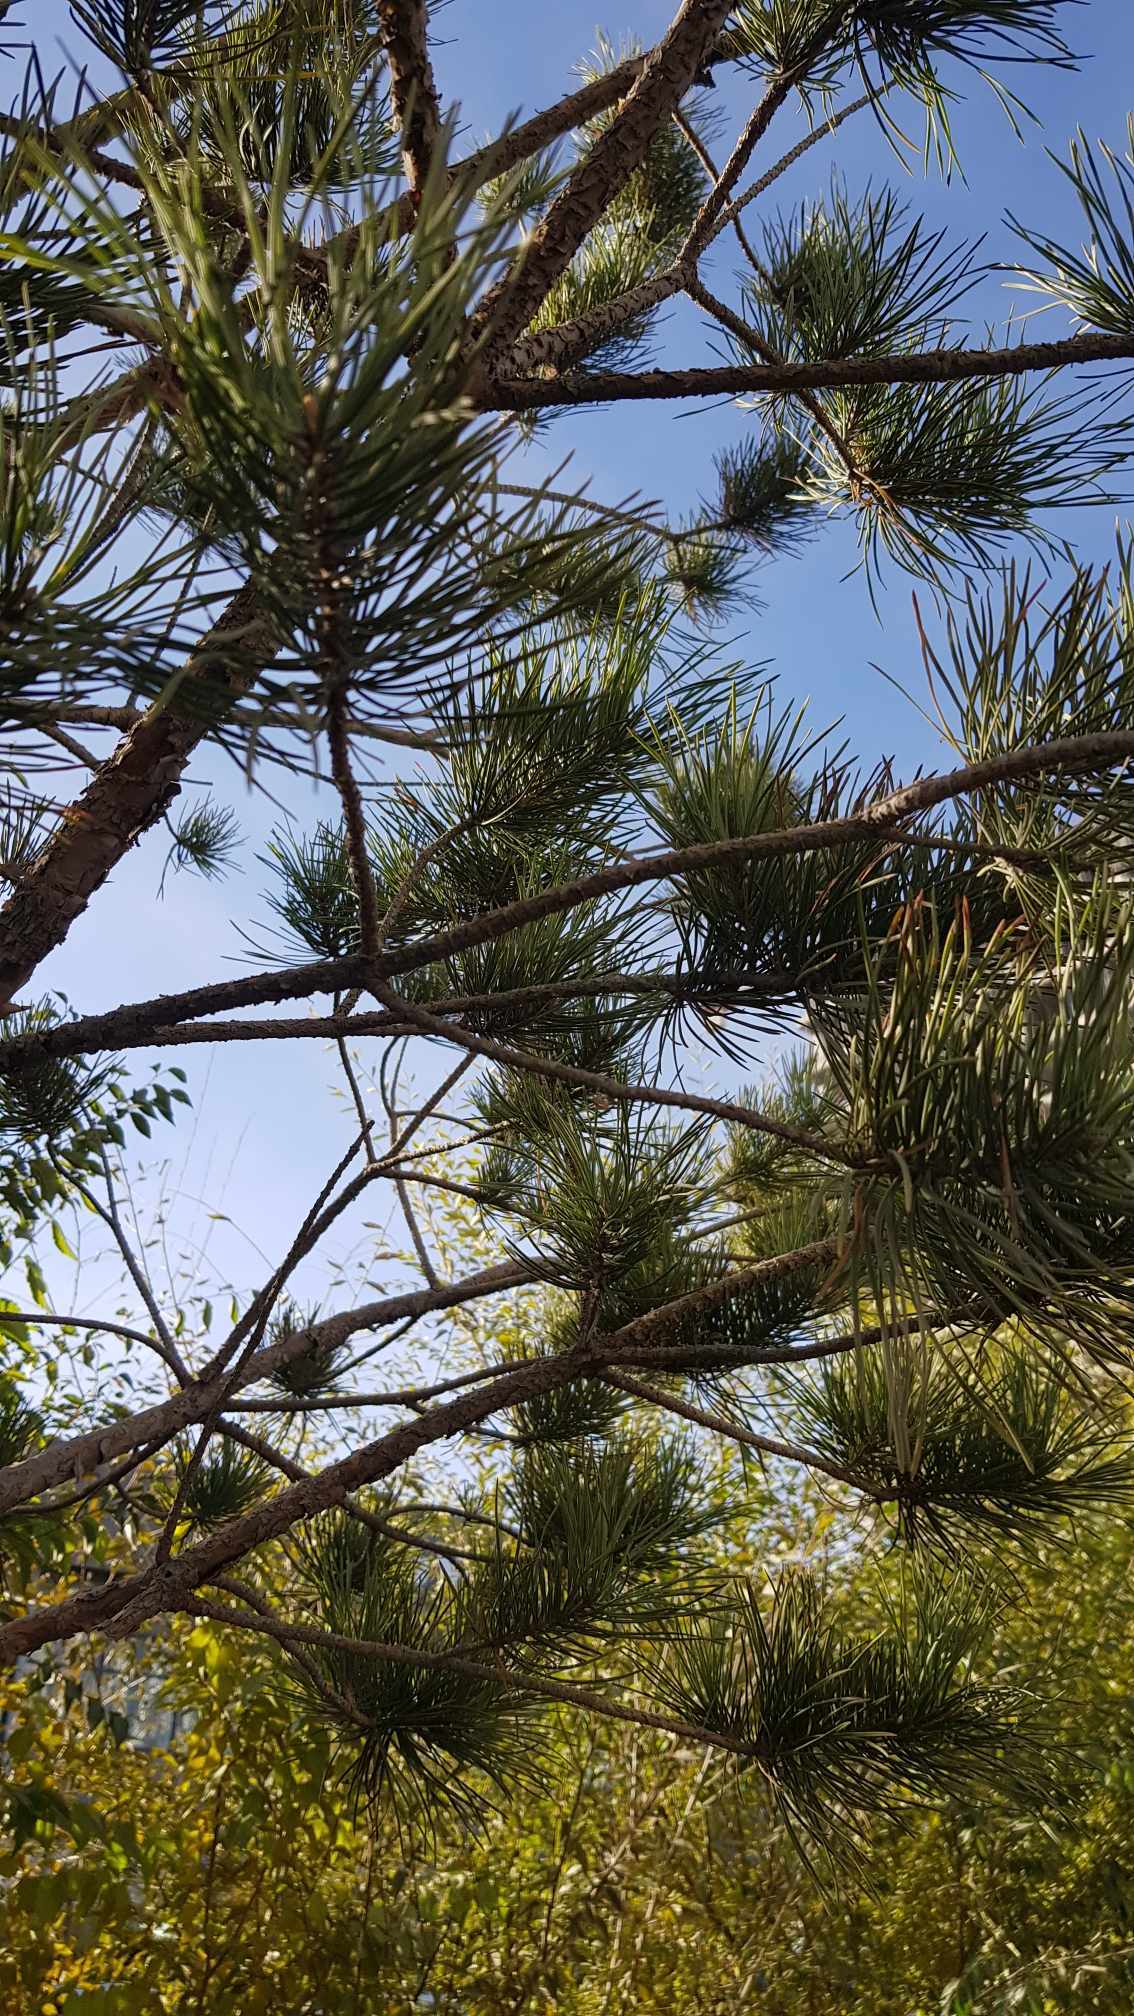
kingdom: Plantae
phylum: Tracheophyta
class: Pinopsida
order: Pinales
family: Pinaceae
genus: Pinus
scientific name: Pinus sylvestris
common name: Scots pine
